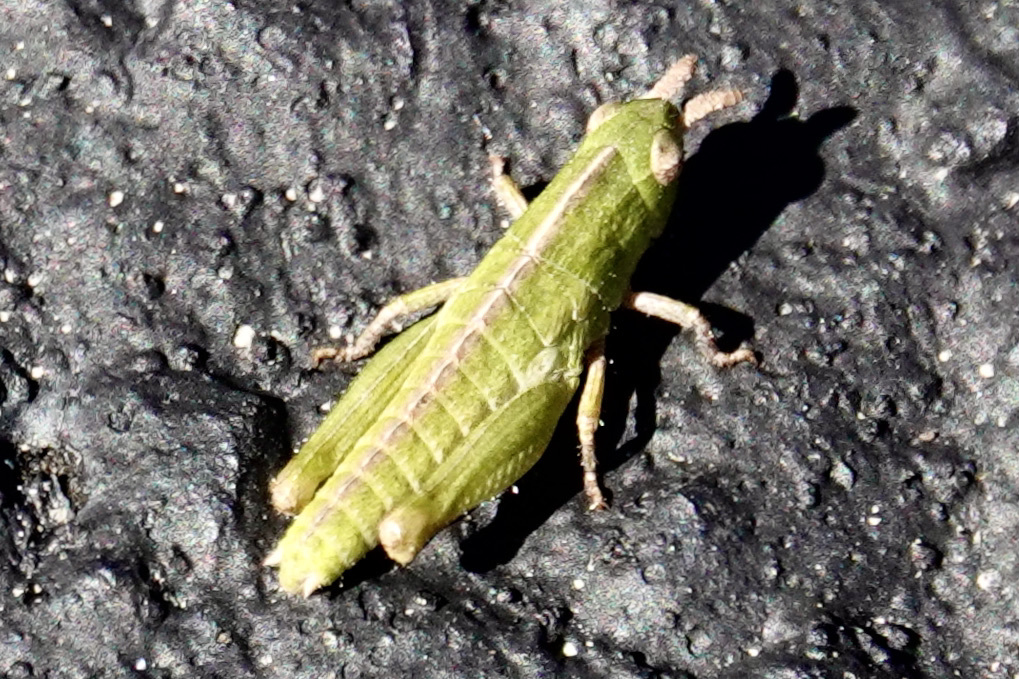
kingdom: Animalia
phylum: Arthropoda
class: Insecta
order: Orthoptera
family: Acrididae
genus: Chortophaga
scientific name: Chortophaga viridifasciata
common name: Green-striped grasshopper
